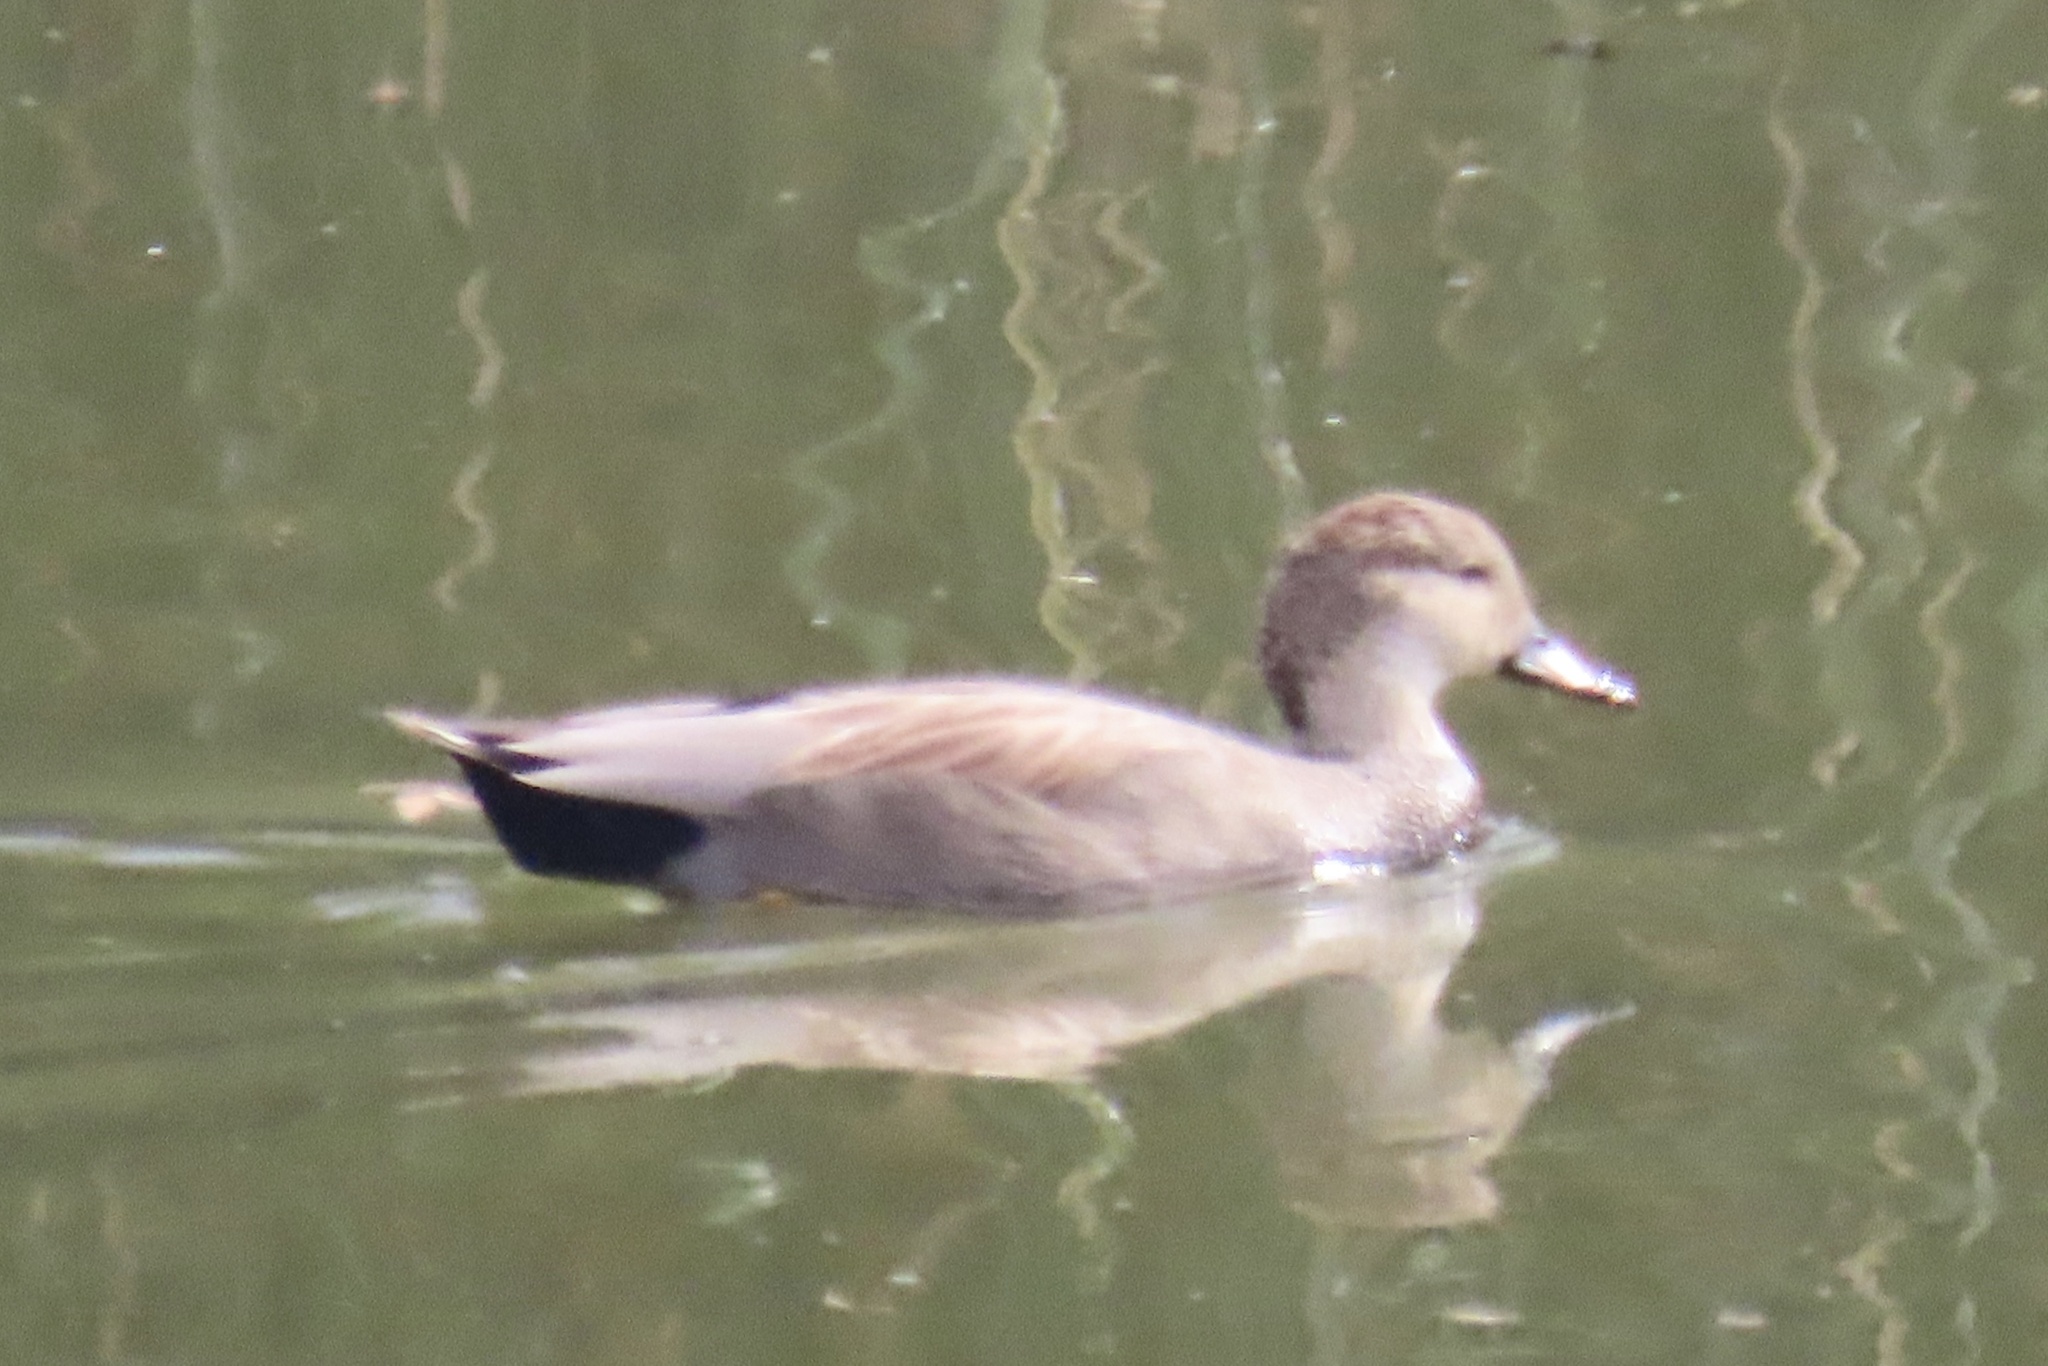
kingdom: Animalia
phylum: Chordata
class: Aves
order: Anseriformes
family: Anatidae
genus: Mareca
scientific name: Mareca strepera
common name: Gadwall
